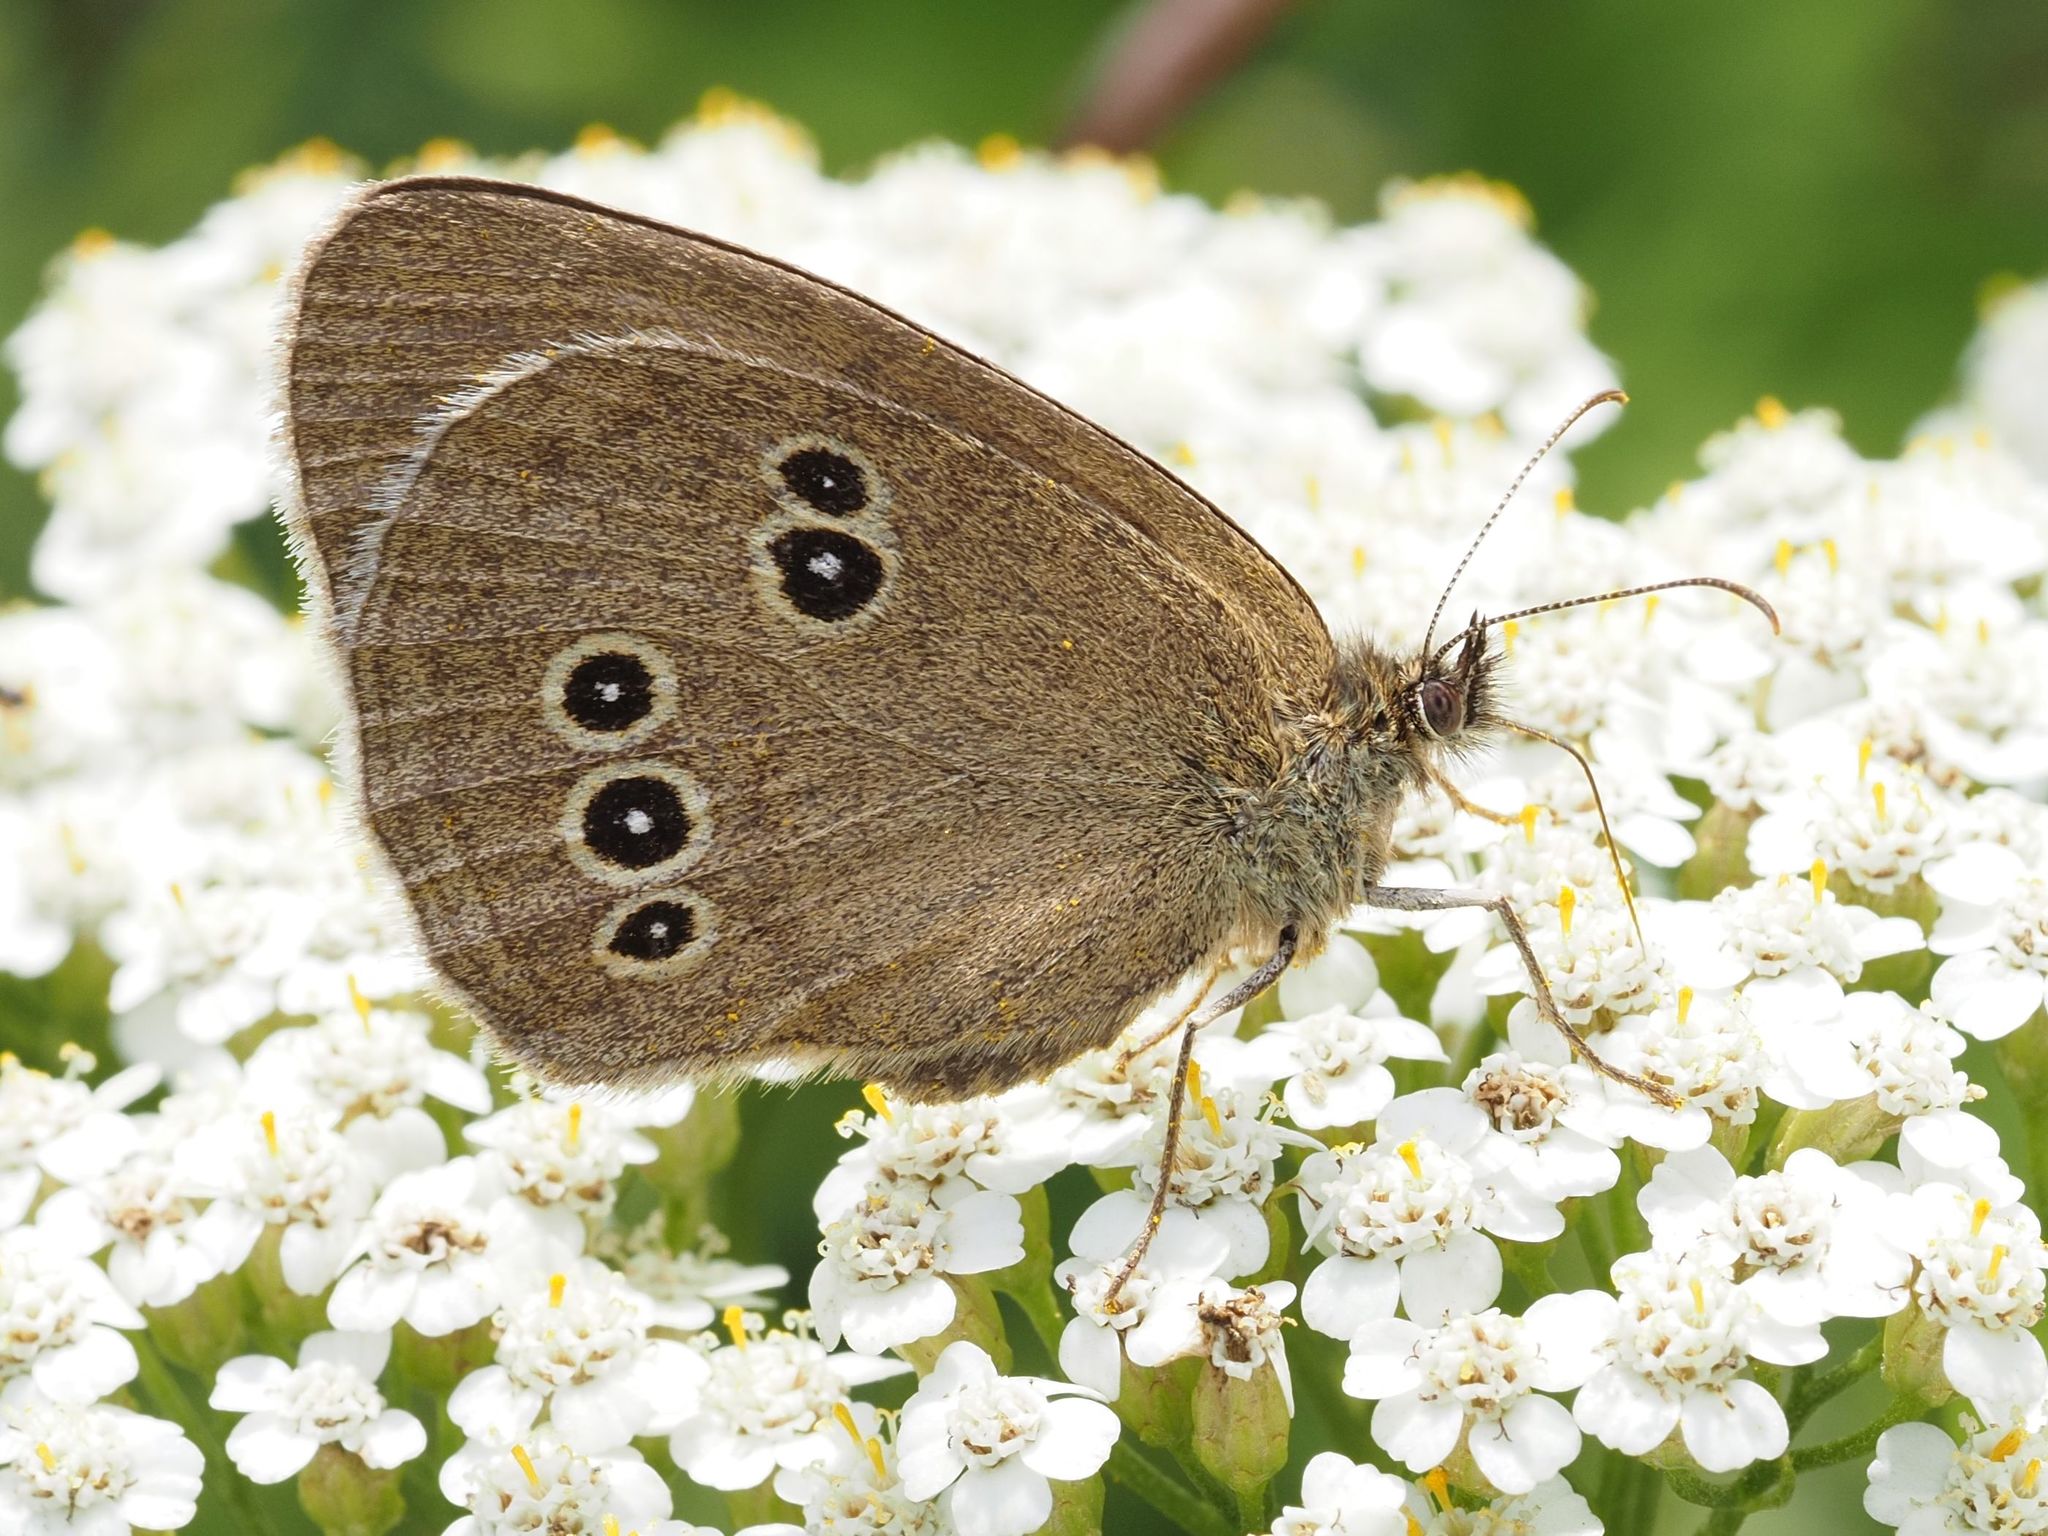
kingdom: Animalia
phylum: Arthropoda
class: Insecta
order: Lepidoptera
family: Nymphalidae
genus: Aphantopus
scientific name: Aphantopus hyperantus
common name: Ringlet
